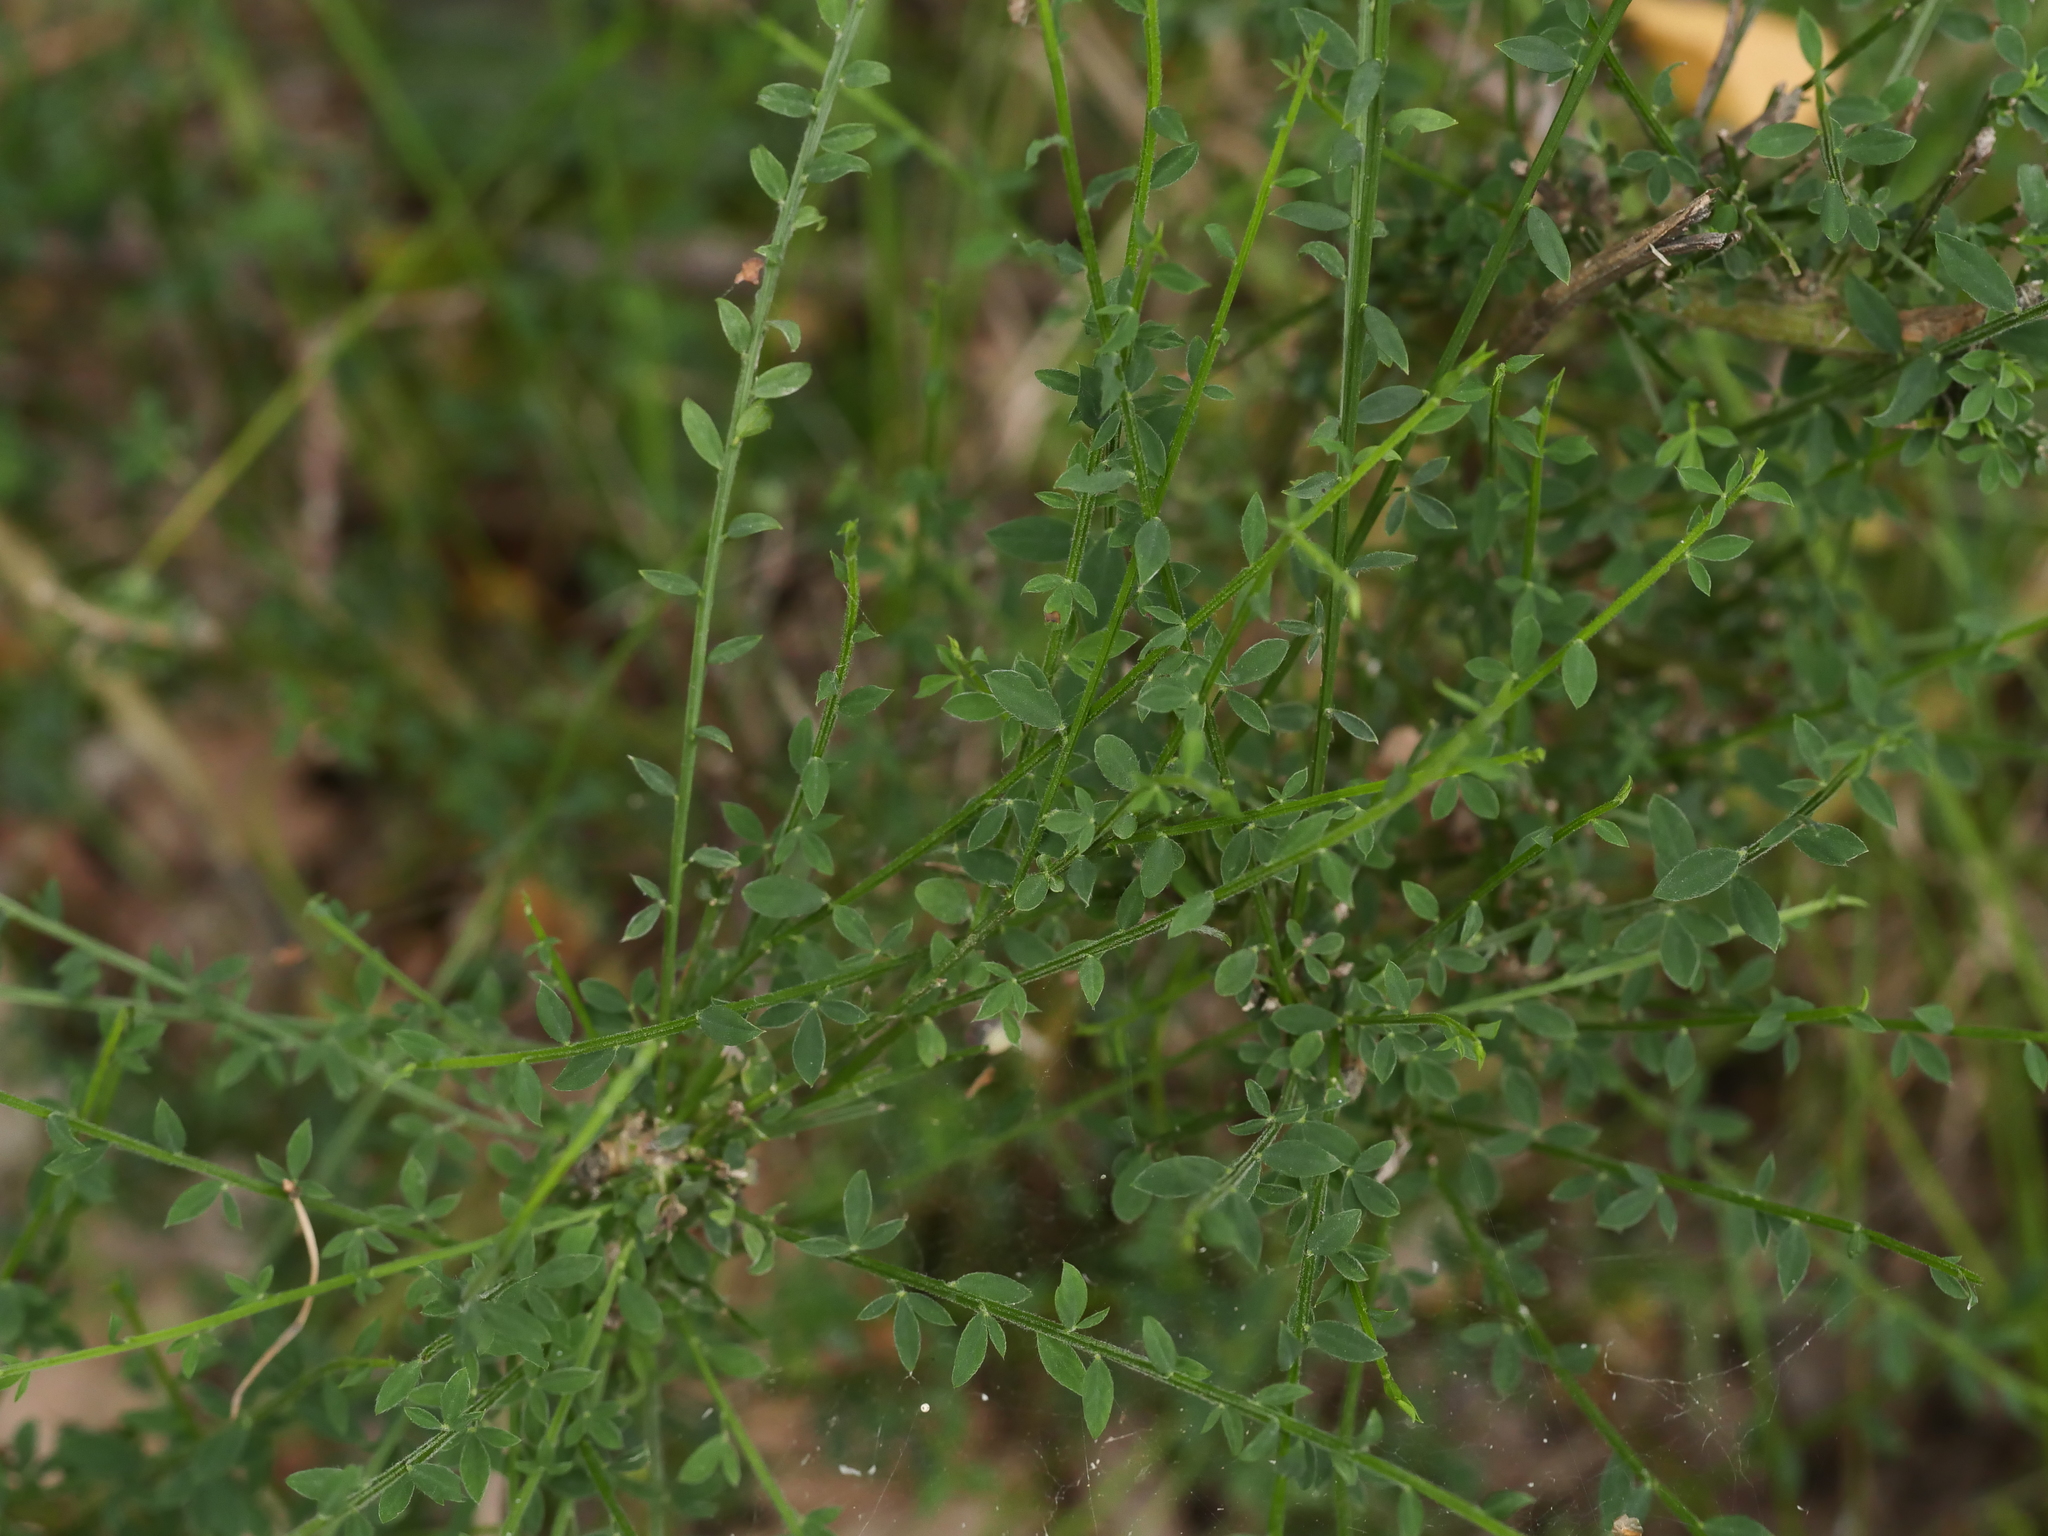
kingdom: Plantae
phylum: Tracheophyta
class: Magnoliopsida
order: Fabales
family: Fabaceae
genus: Cytisus
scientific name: Cytisus scoparius
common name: Scotch broom
